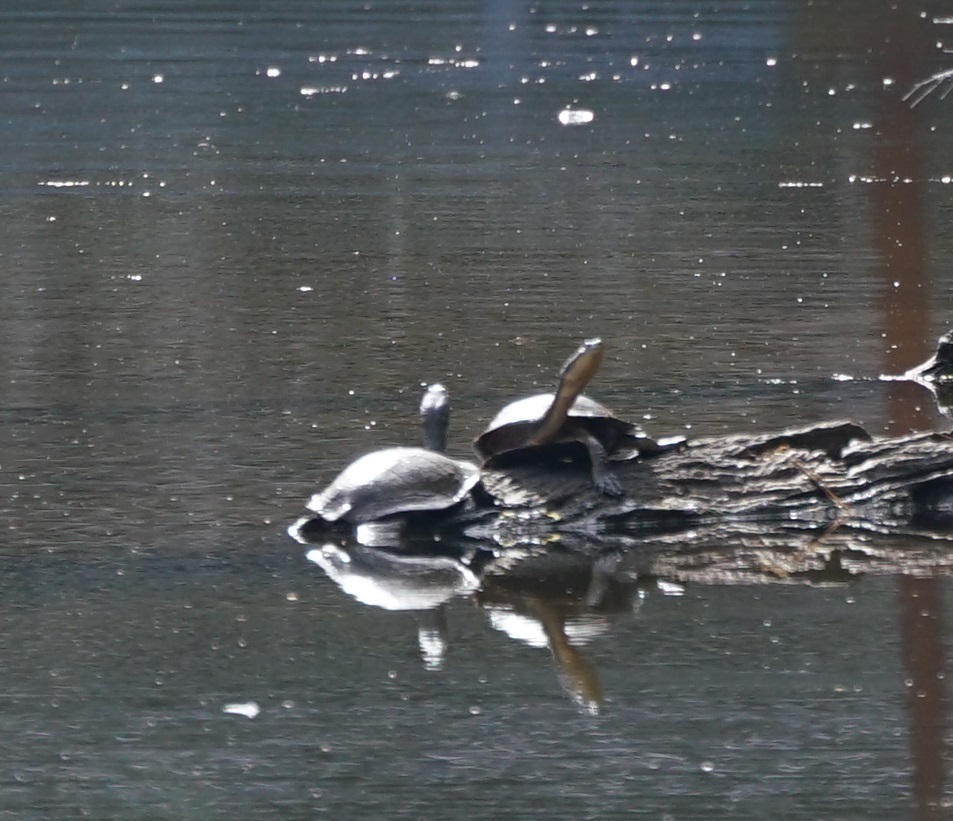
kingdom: Animalia
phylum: Chordata
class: Testudines
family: Chelidae
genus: Chelodina
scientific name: Chelodina longicollis
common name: Eastern snake-necked turtle
